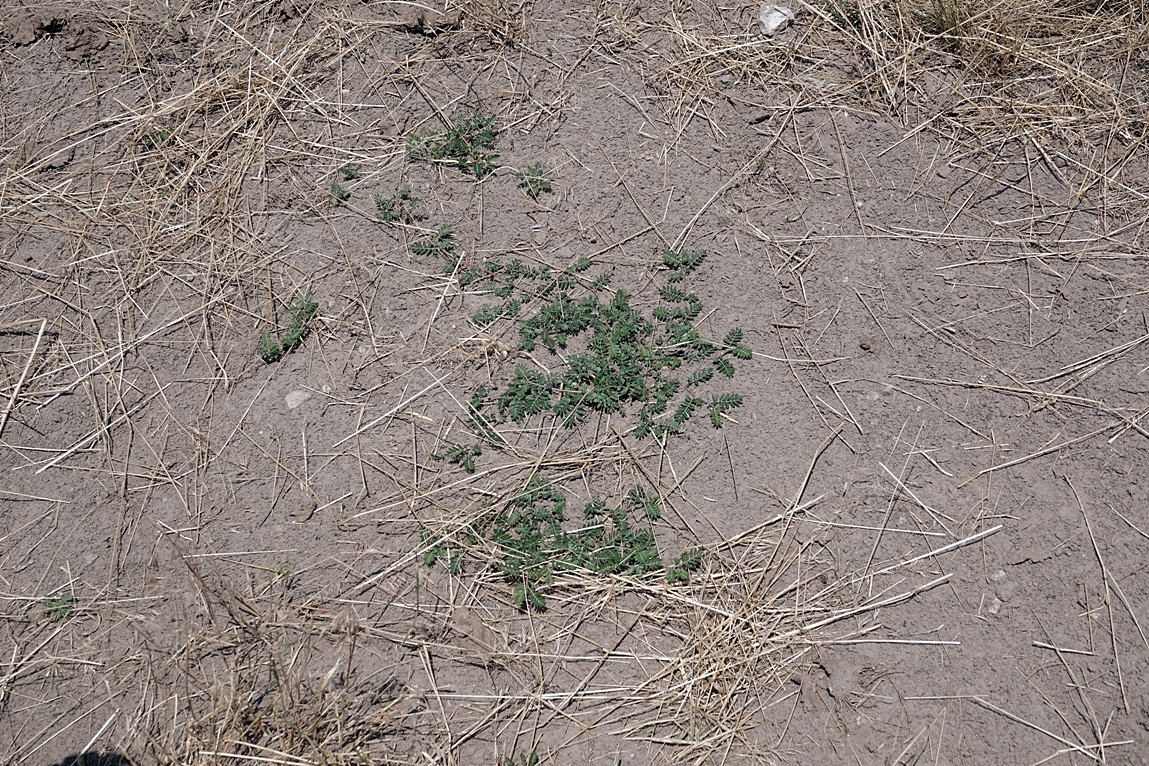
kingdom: Plantae
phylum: Tracheophyta
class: Magnoliopsida
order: Zygophyllales
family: Zygophyllaceae
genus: Tribulus
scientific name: Tribulus terrestris
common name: Puncturevine
